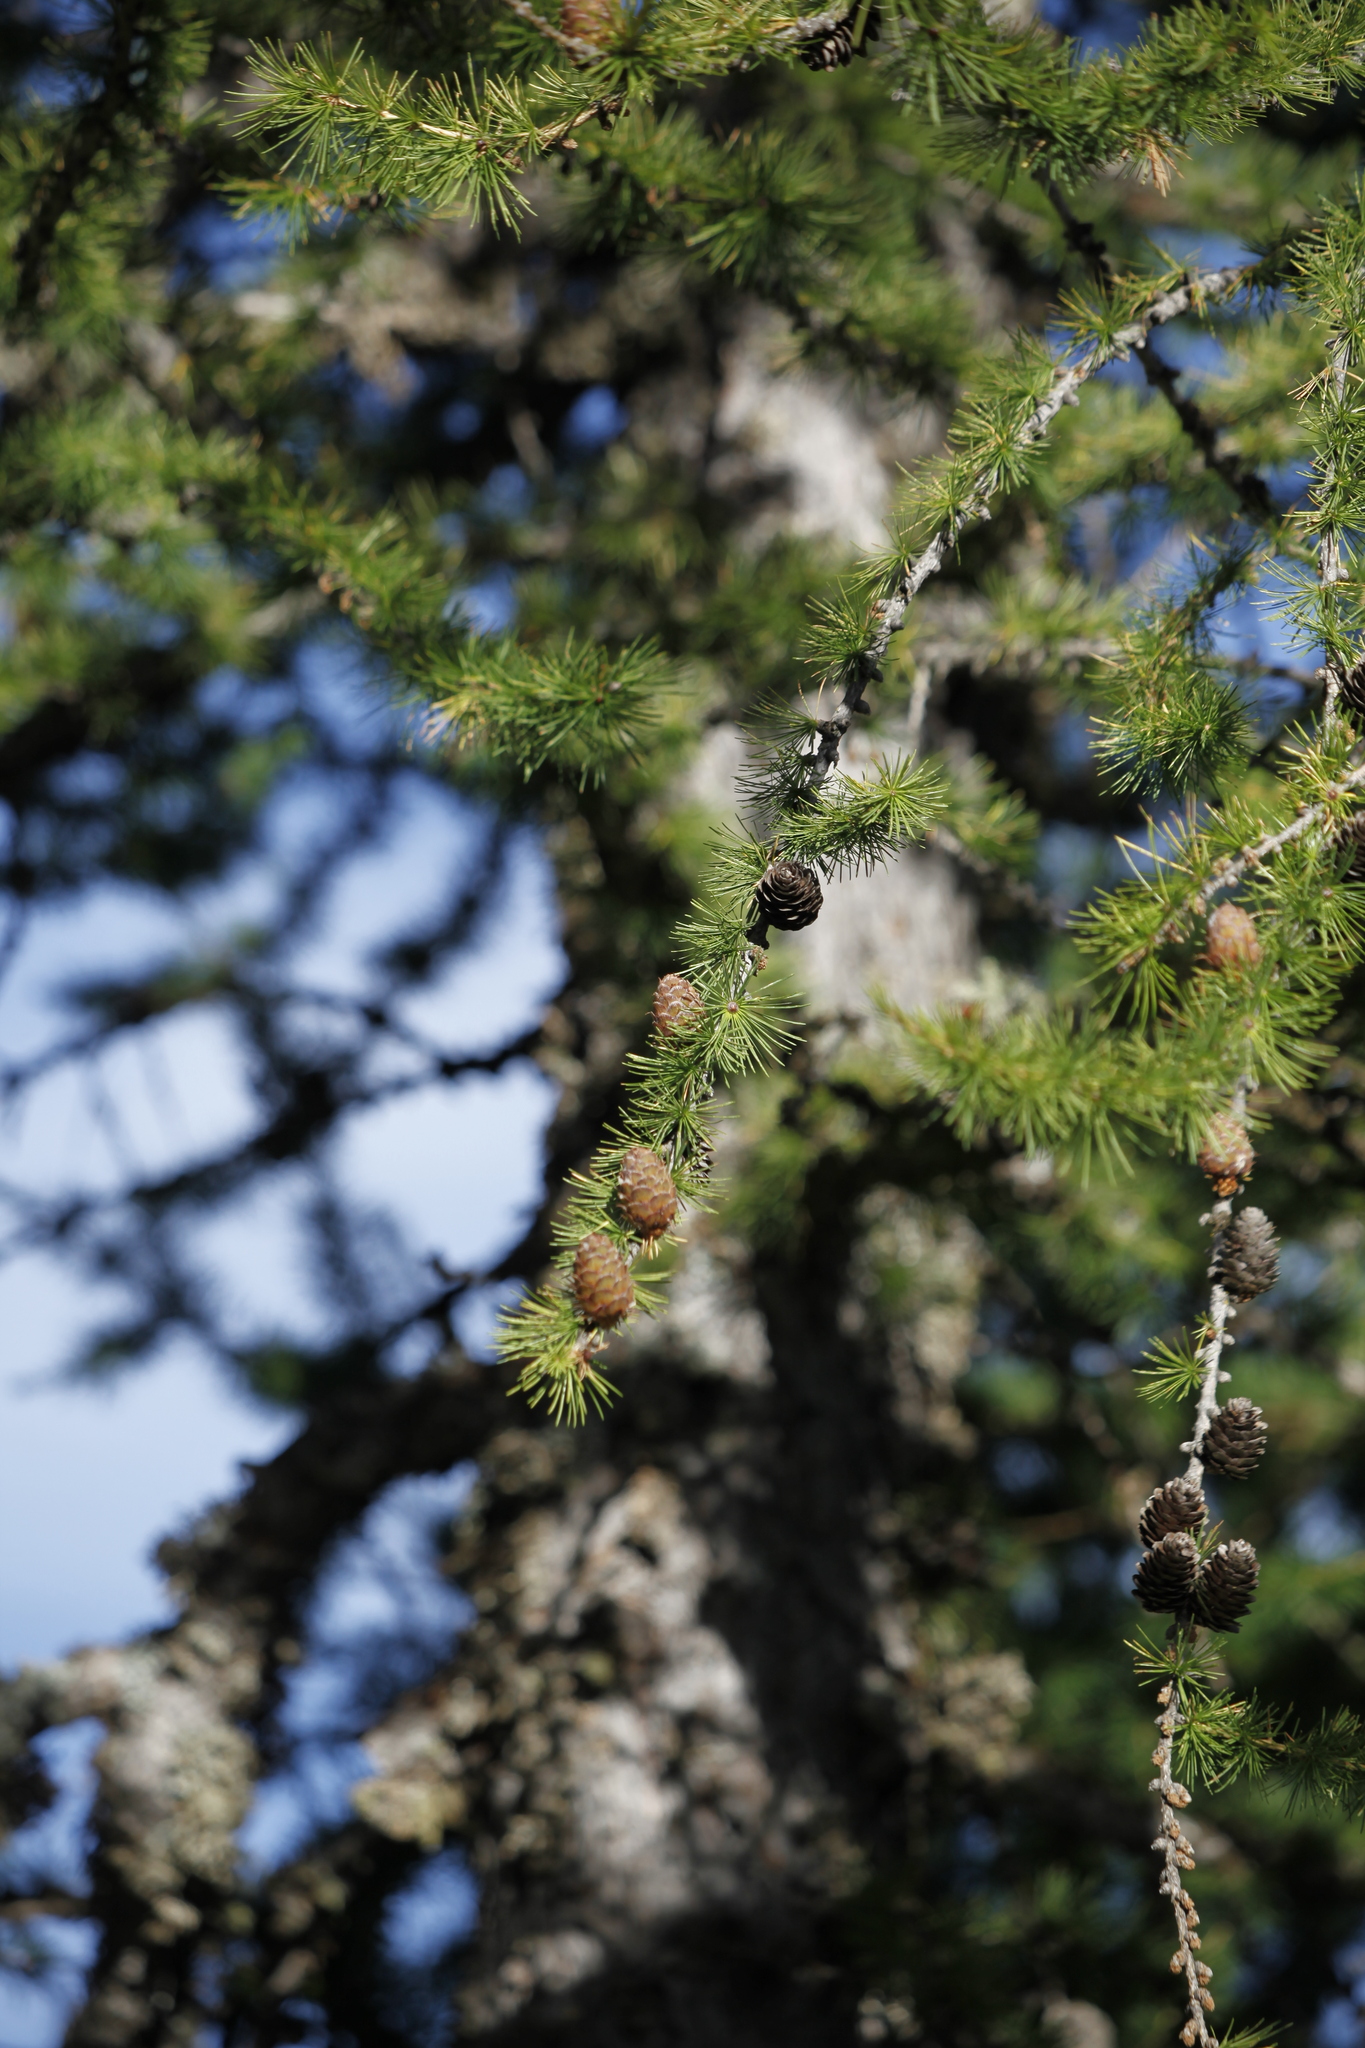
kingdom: Plantae
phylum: Tracheophyta
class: Pinopsida
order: Pinales
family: Pinaceae
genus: Larix
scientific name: Larix decidua
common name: European larch
